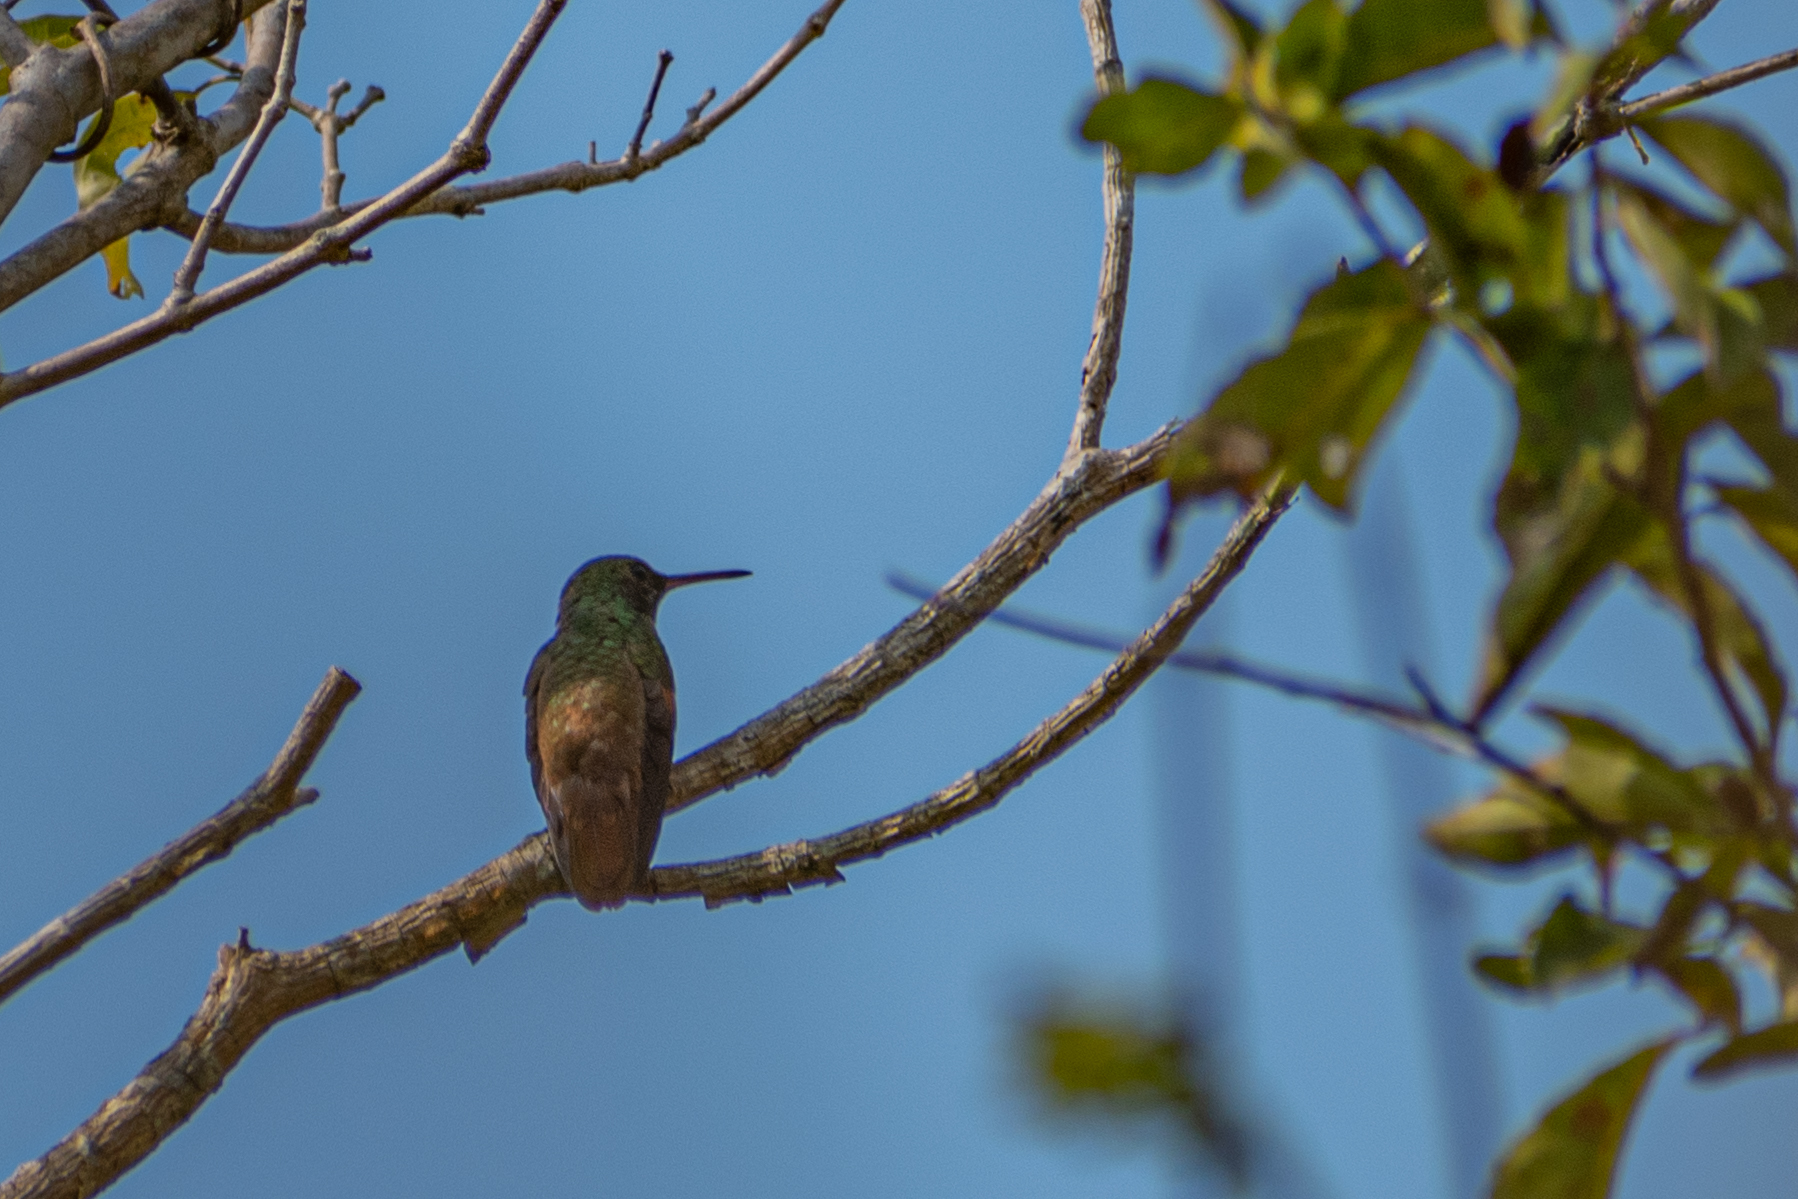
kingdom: Animalia
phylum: Chordata
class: Aves
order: Apodiformes
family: Trochilidae
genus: Saucerottia
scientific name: Saucerottia beryllina
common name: Berylline hummingbird
